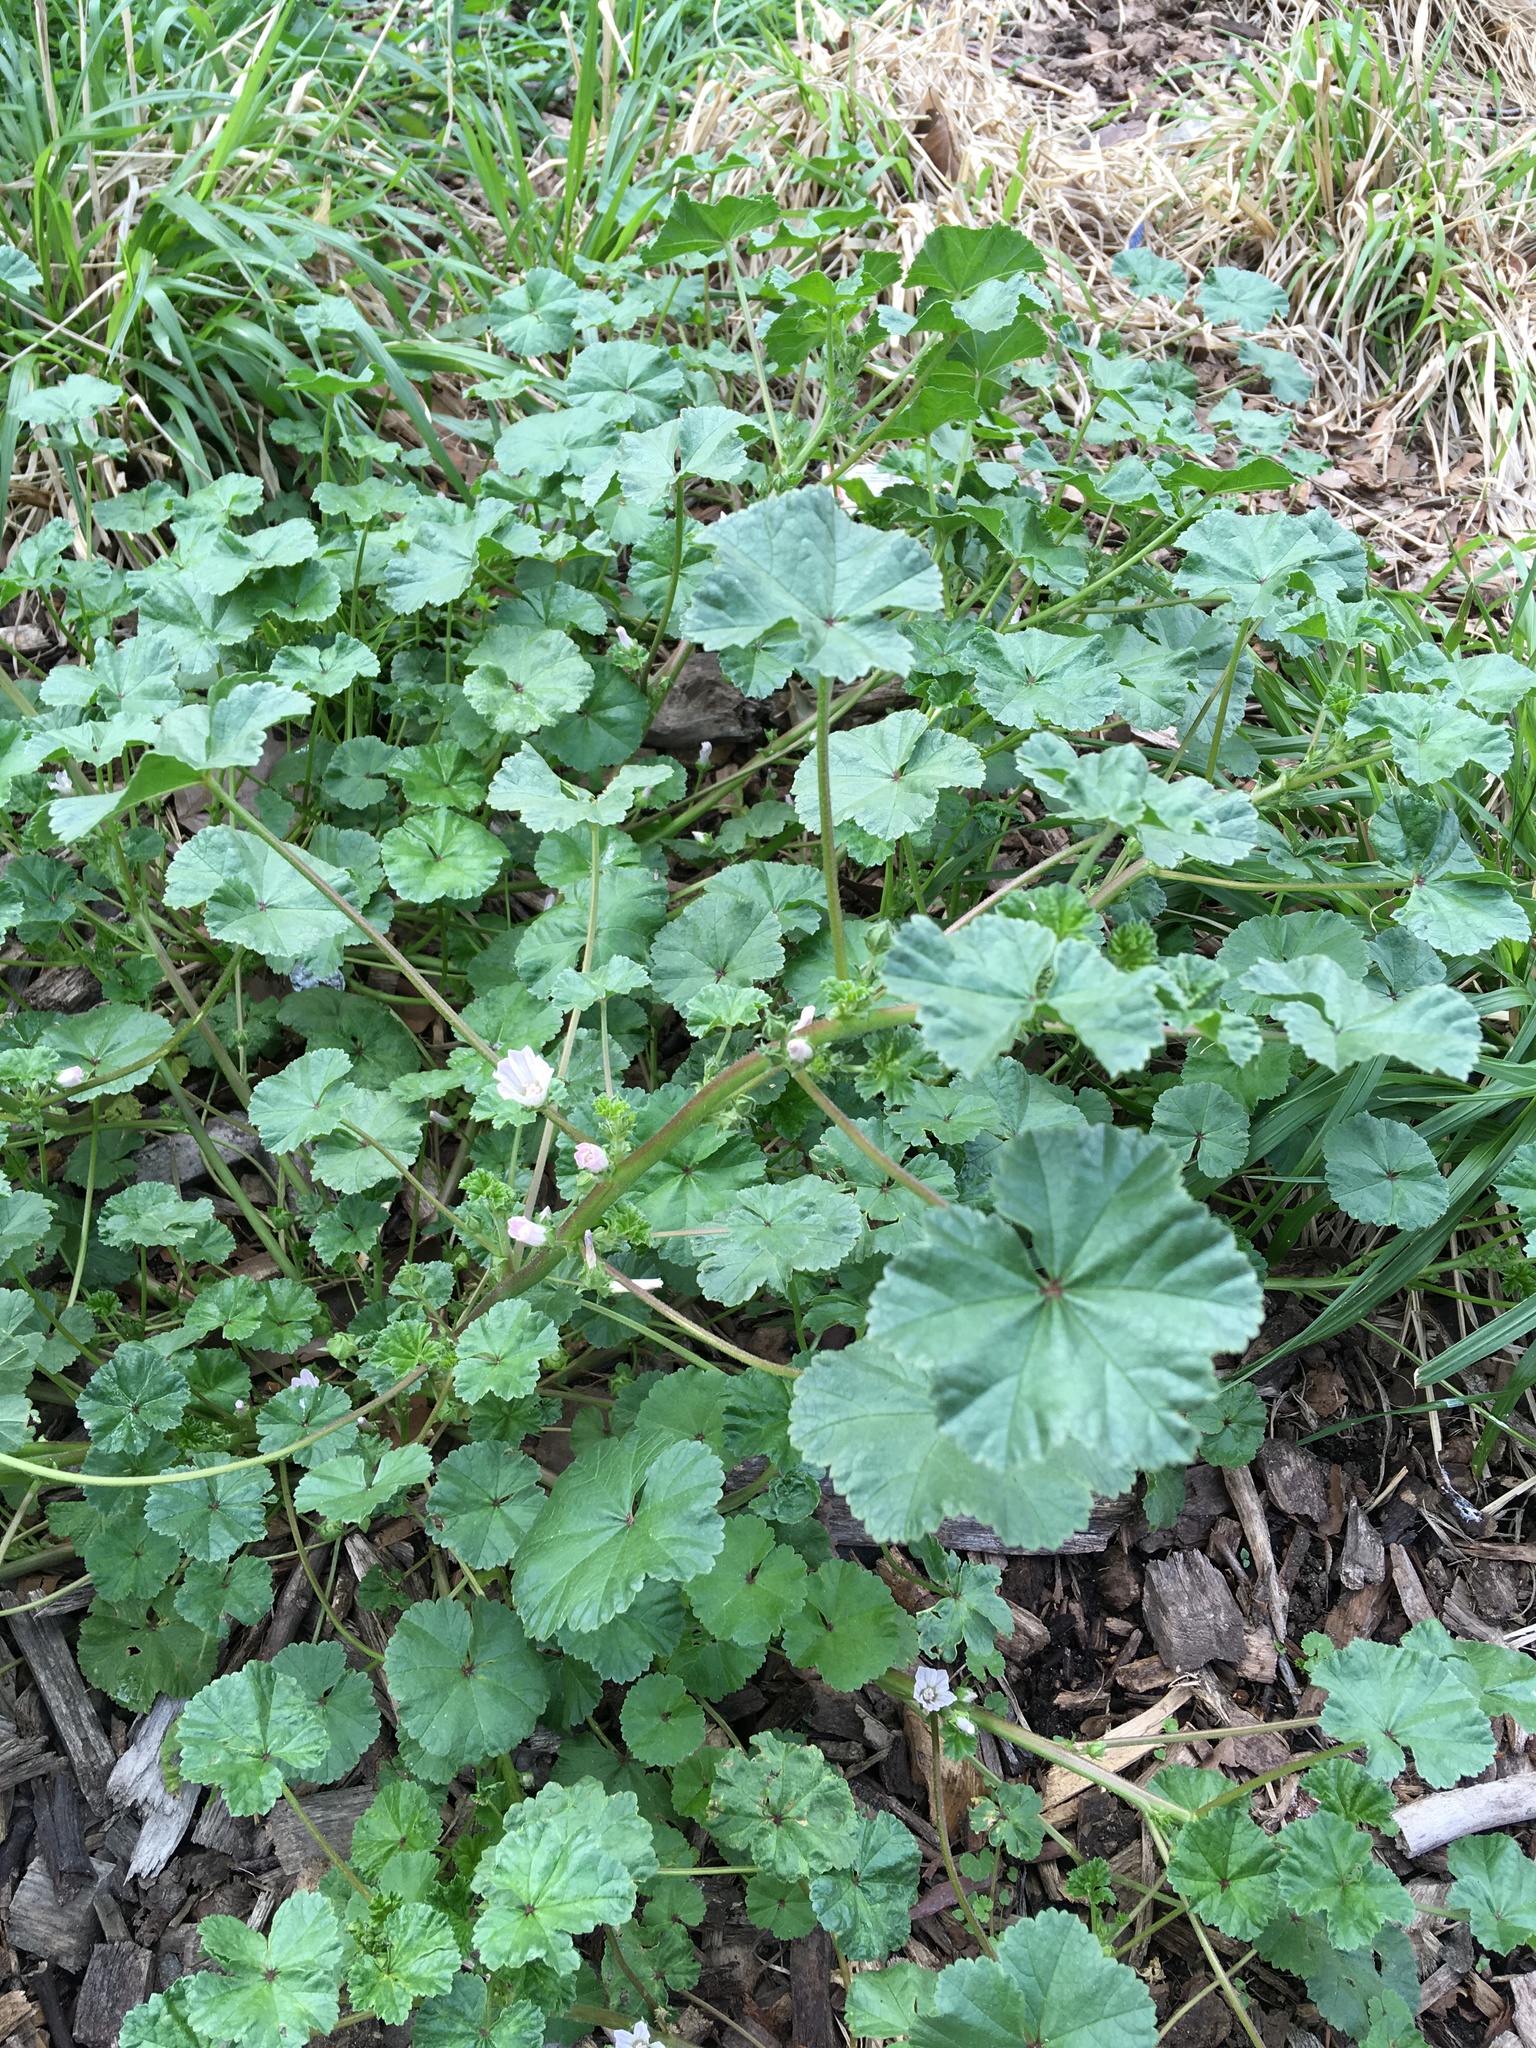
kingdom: Plantae
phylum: Tracheophyta
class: Magnoliopsida
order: Malvales
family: Malvaceae
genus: Malva
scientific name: Malva neglecta
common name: Common mallow
